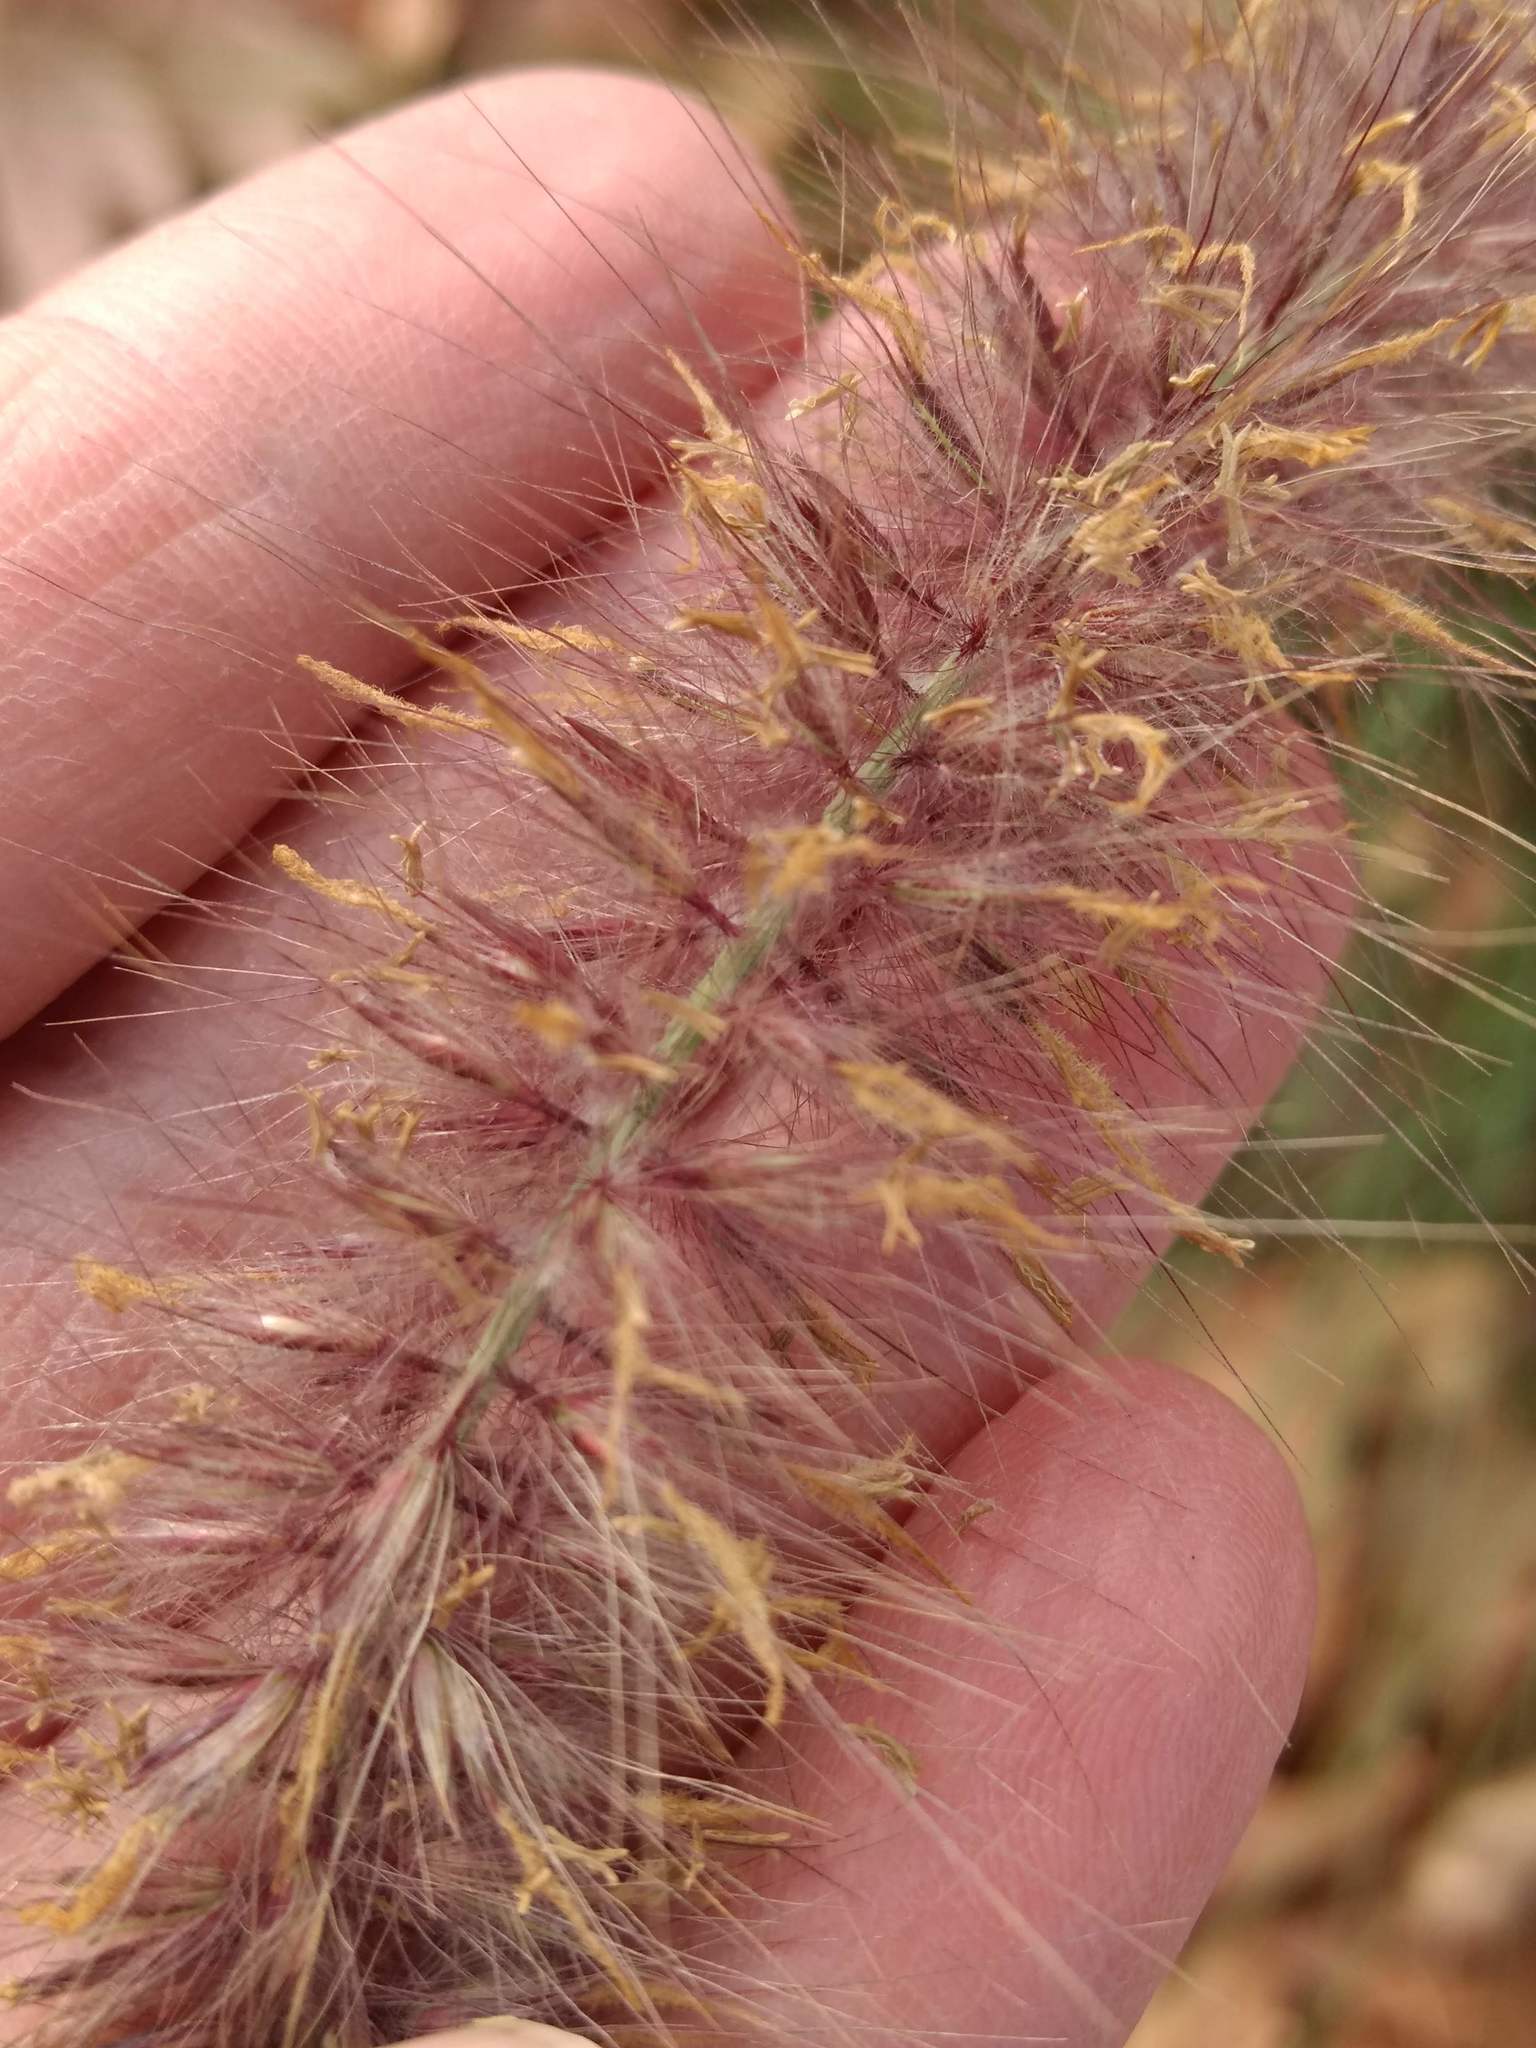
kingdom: Plantae
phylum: Tracheophyta
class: Liliopsida
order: Poales
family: Poaceae
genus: Cenchrus
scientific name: Cenchrus setaceus
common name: Crimson fountaingrass
